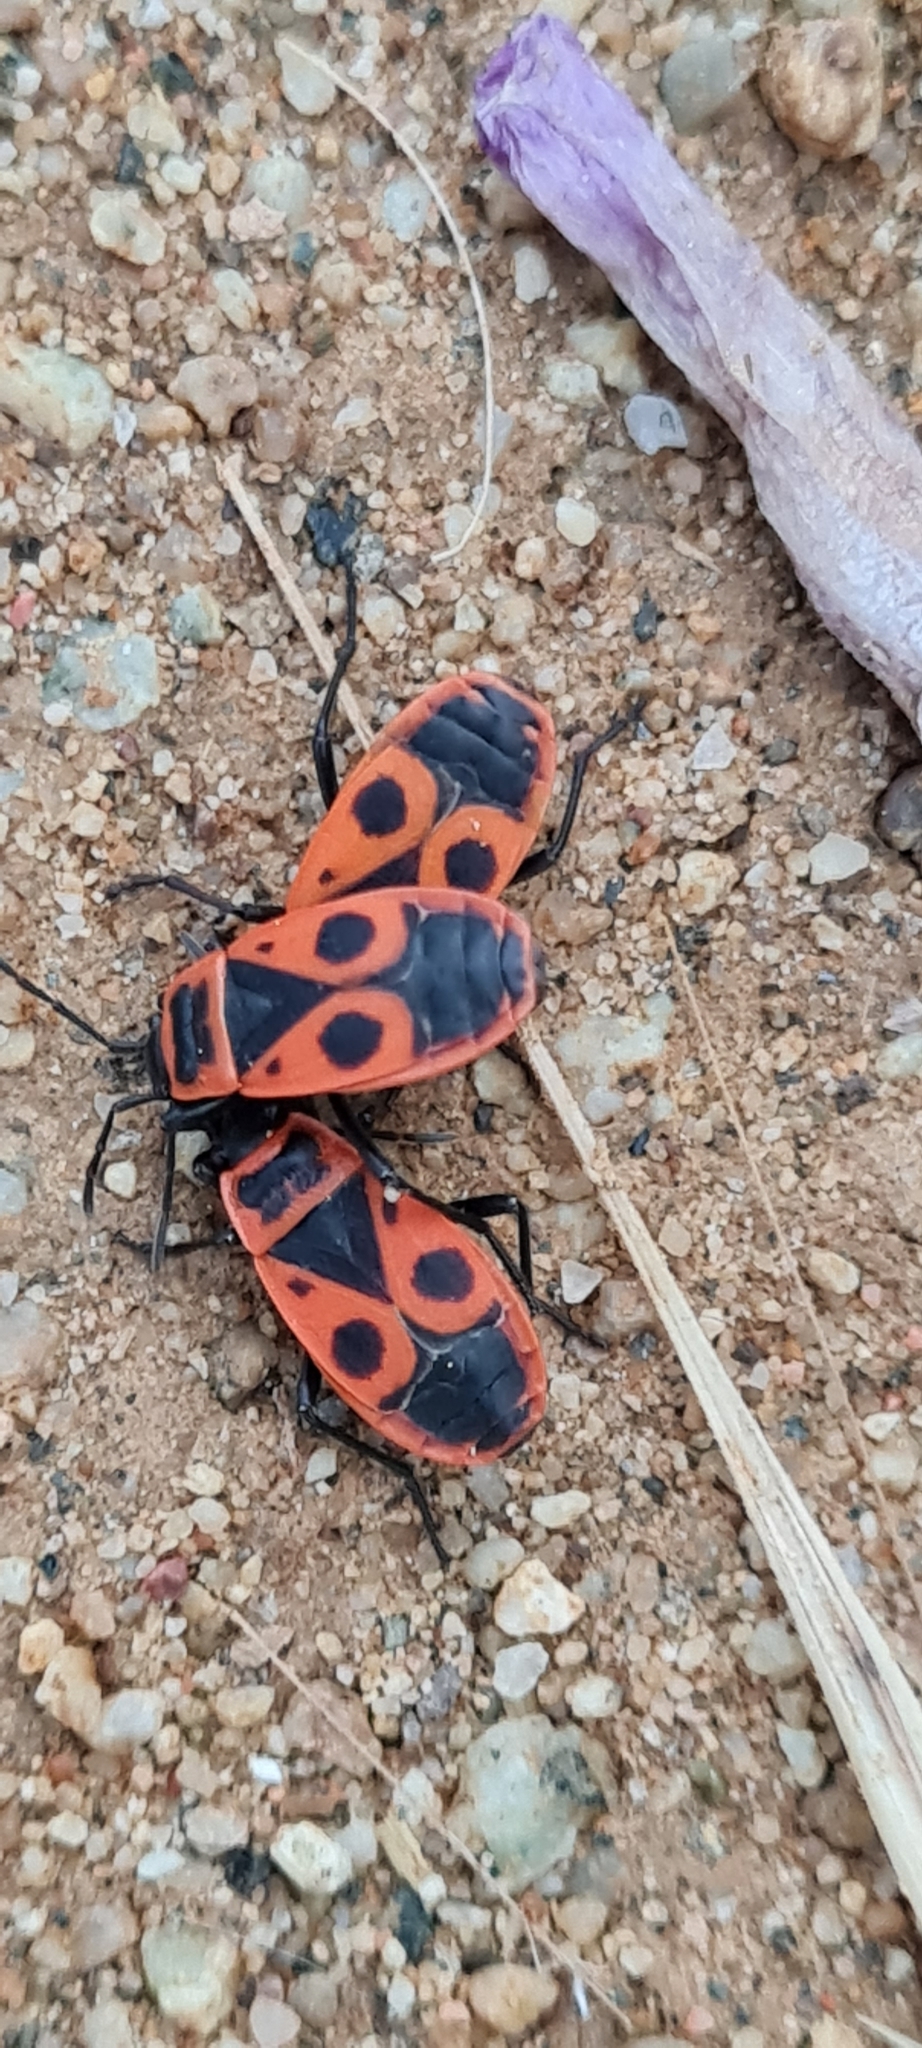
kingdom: Animalia
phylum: Arthropoda
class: Insecta
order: Hemiptera
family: Pyrrhocoridae
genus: Pyrrhocoris
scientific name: Pyrrhocoris apterus
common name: Firebug
